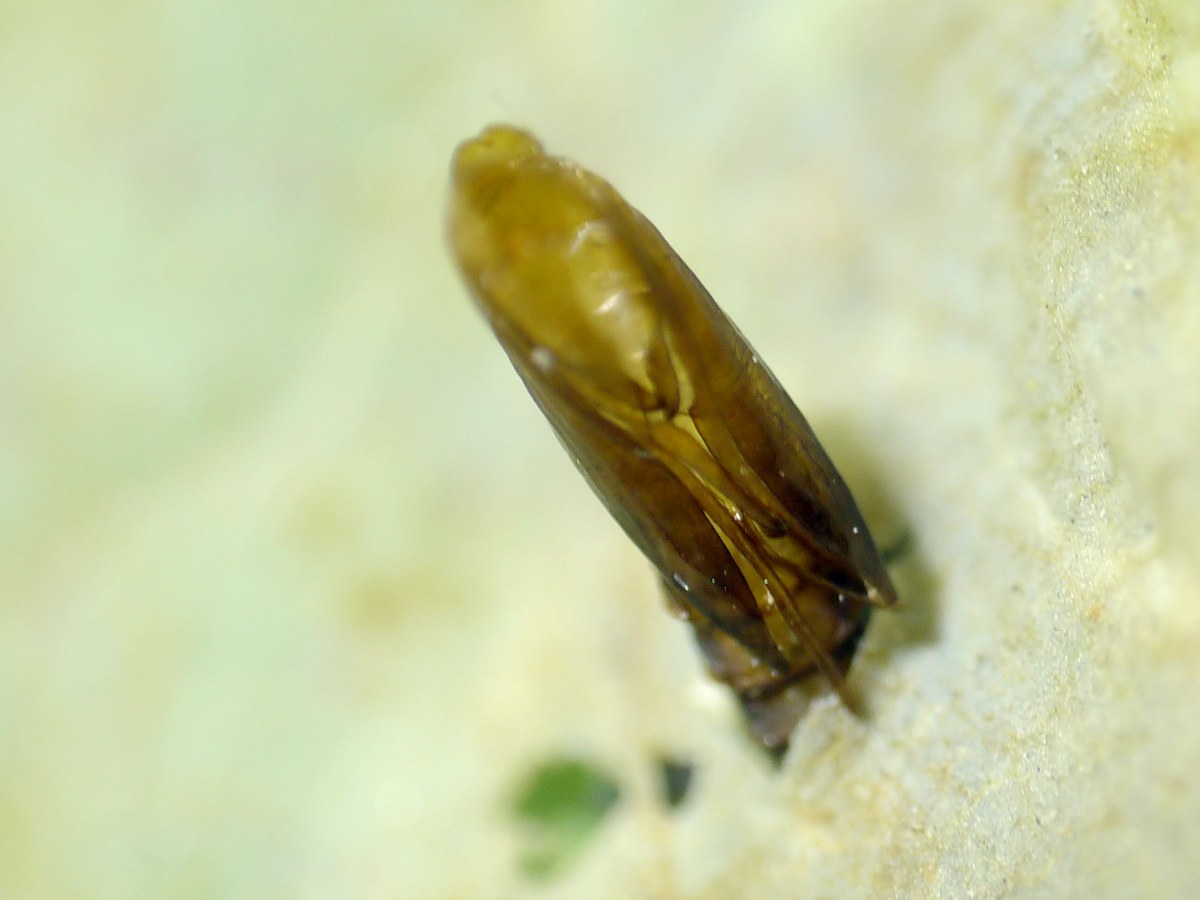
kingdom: Animalia
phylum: Arthropoda
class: Insecta
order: Lepidoptera
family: Gracillariidae
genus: Cameraria
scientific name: Cameraria ohridella
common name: Horse-chestnut leaf-miner
